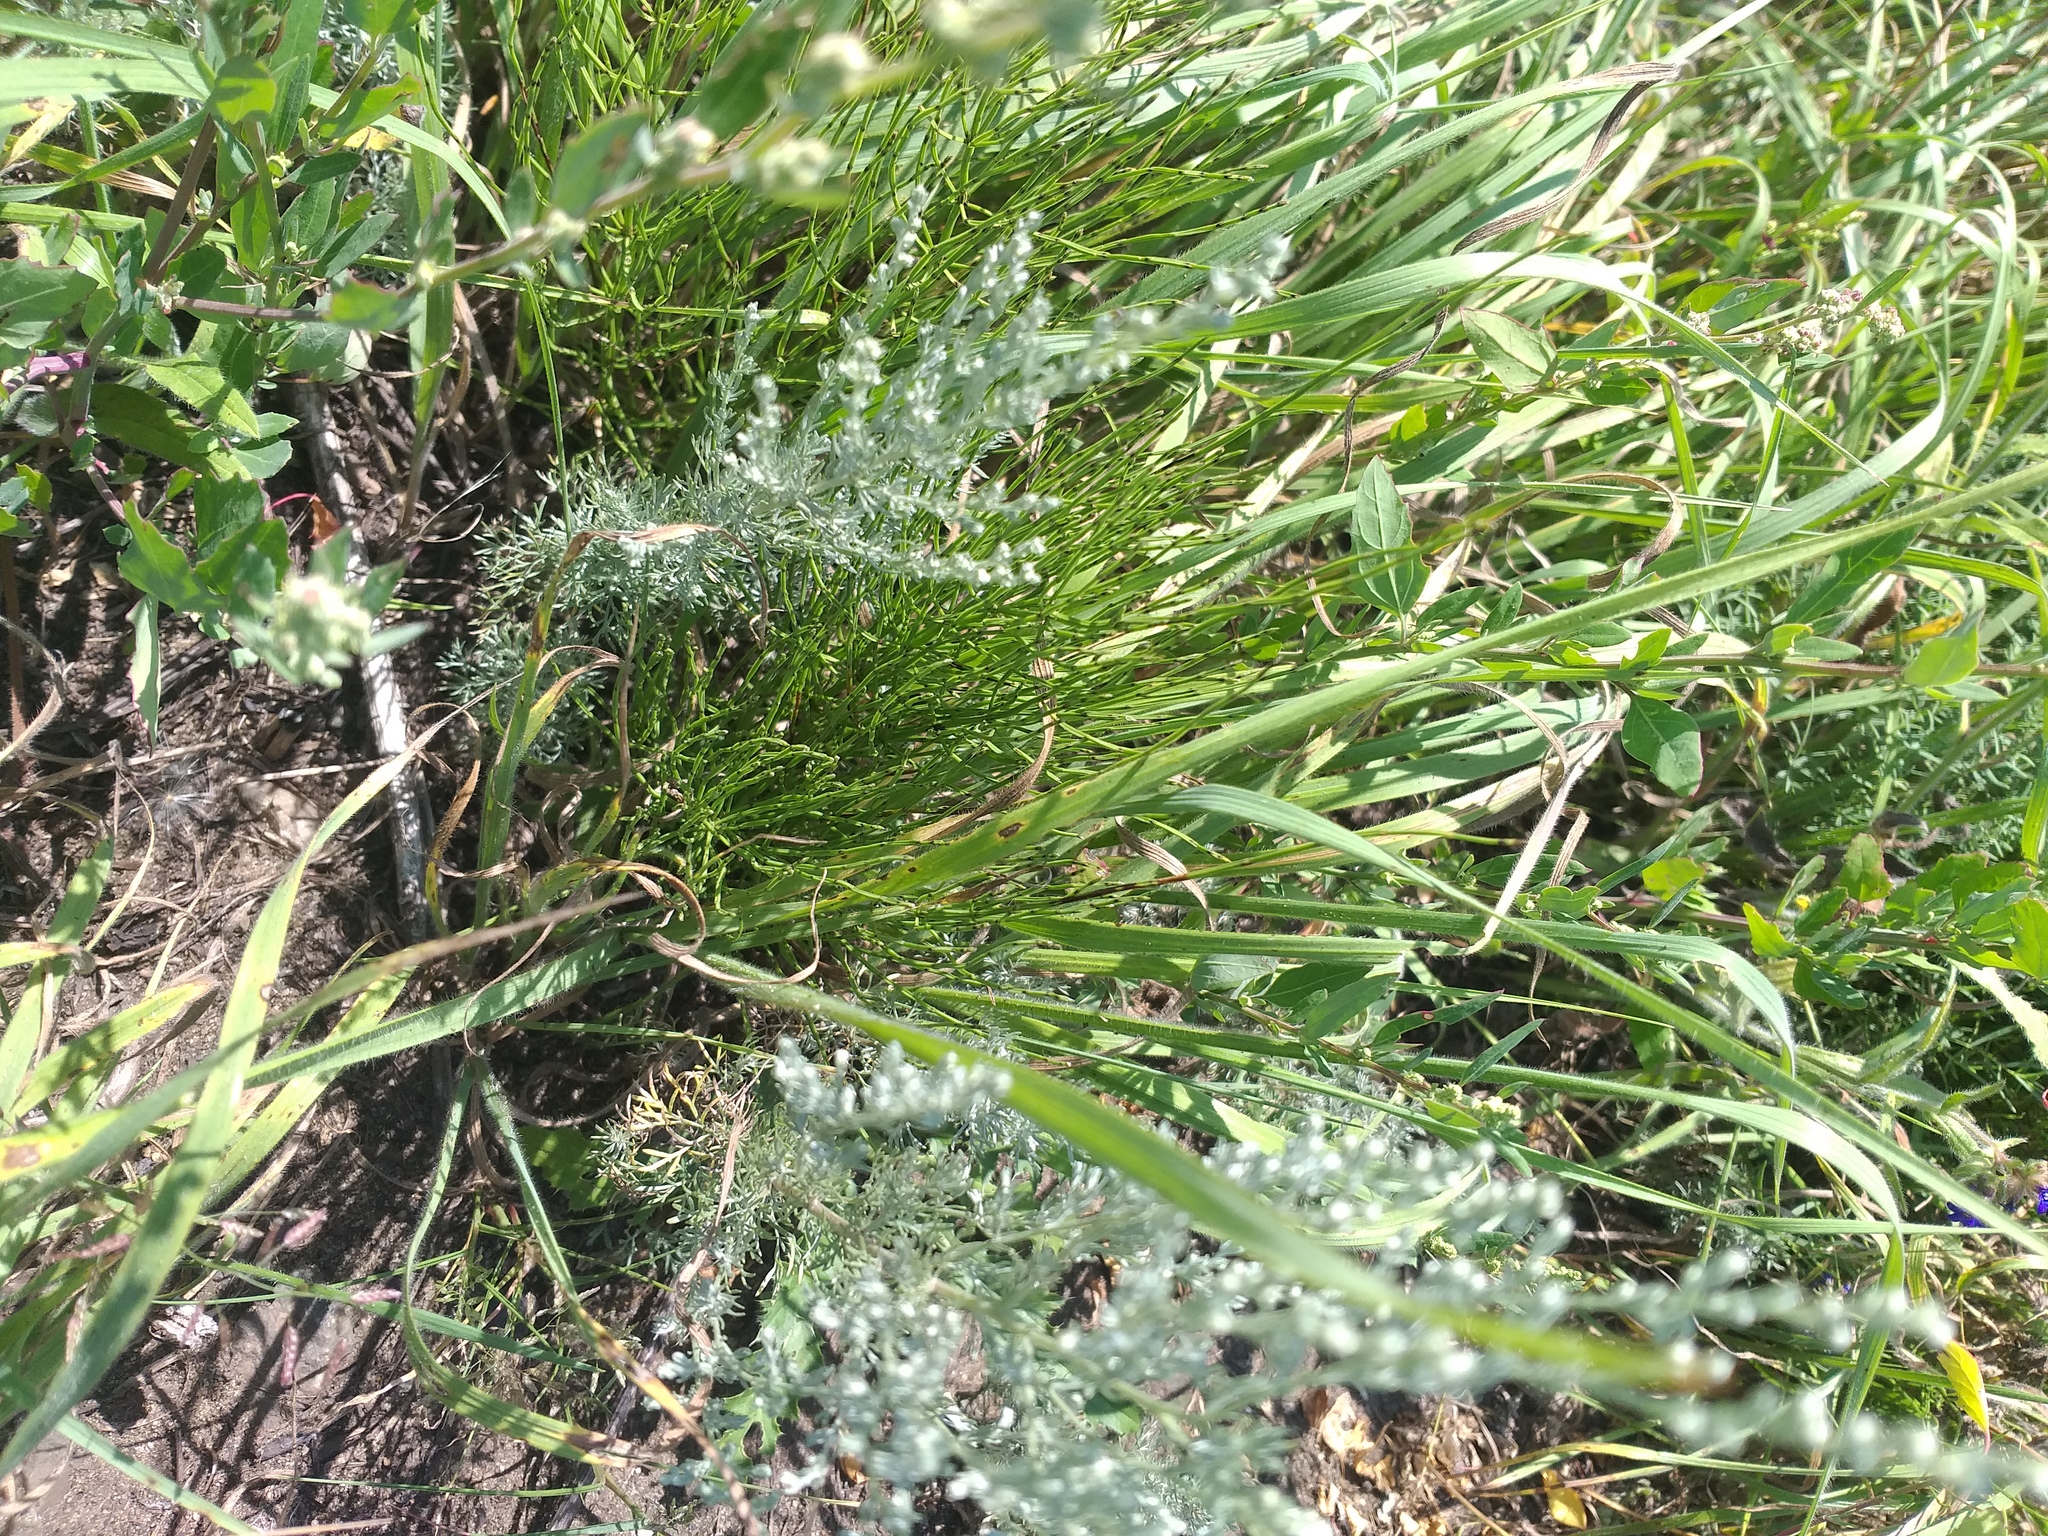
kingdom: Plantae
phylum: Tracheophyta
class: Polypodiopsida
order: Equisetales
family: Equisetaceae
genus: Equisetum
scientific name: Equisetum arvense
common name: Field horsetail
